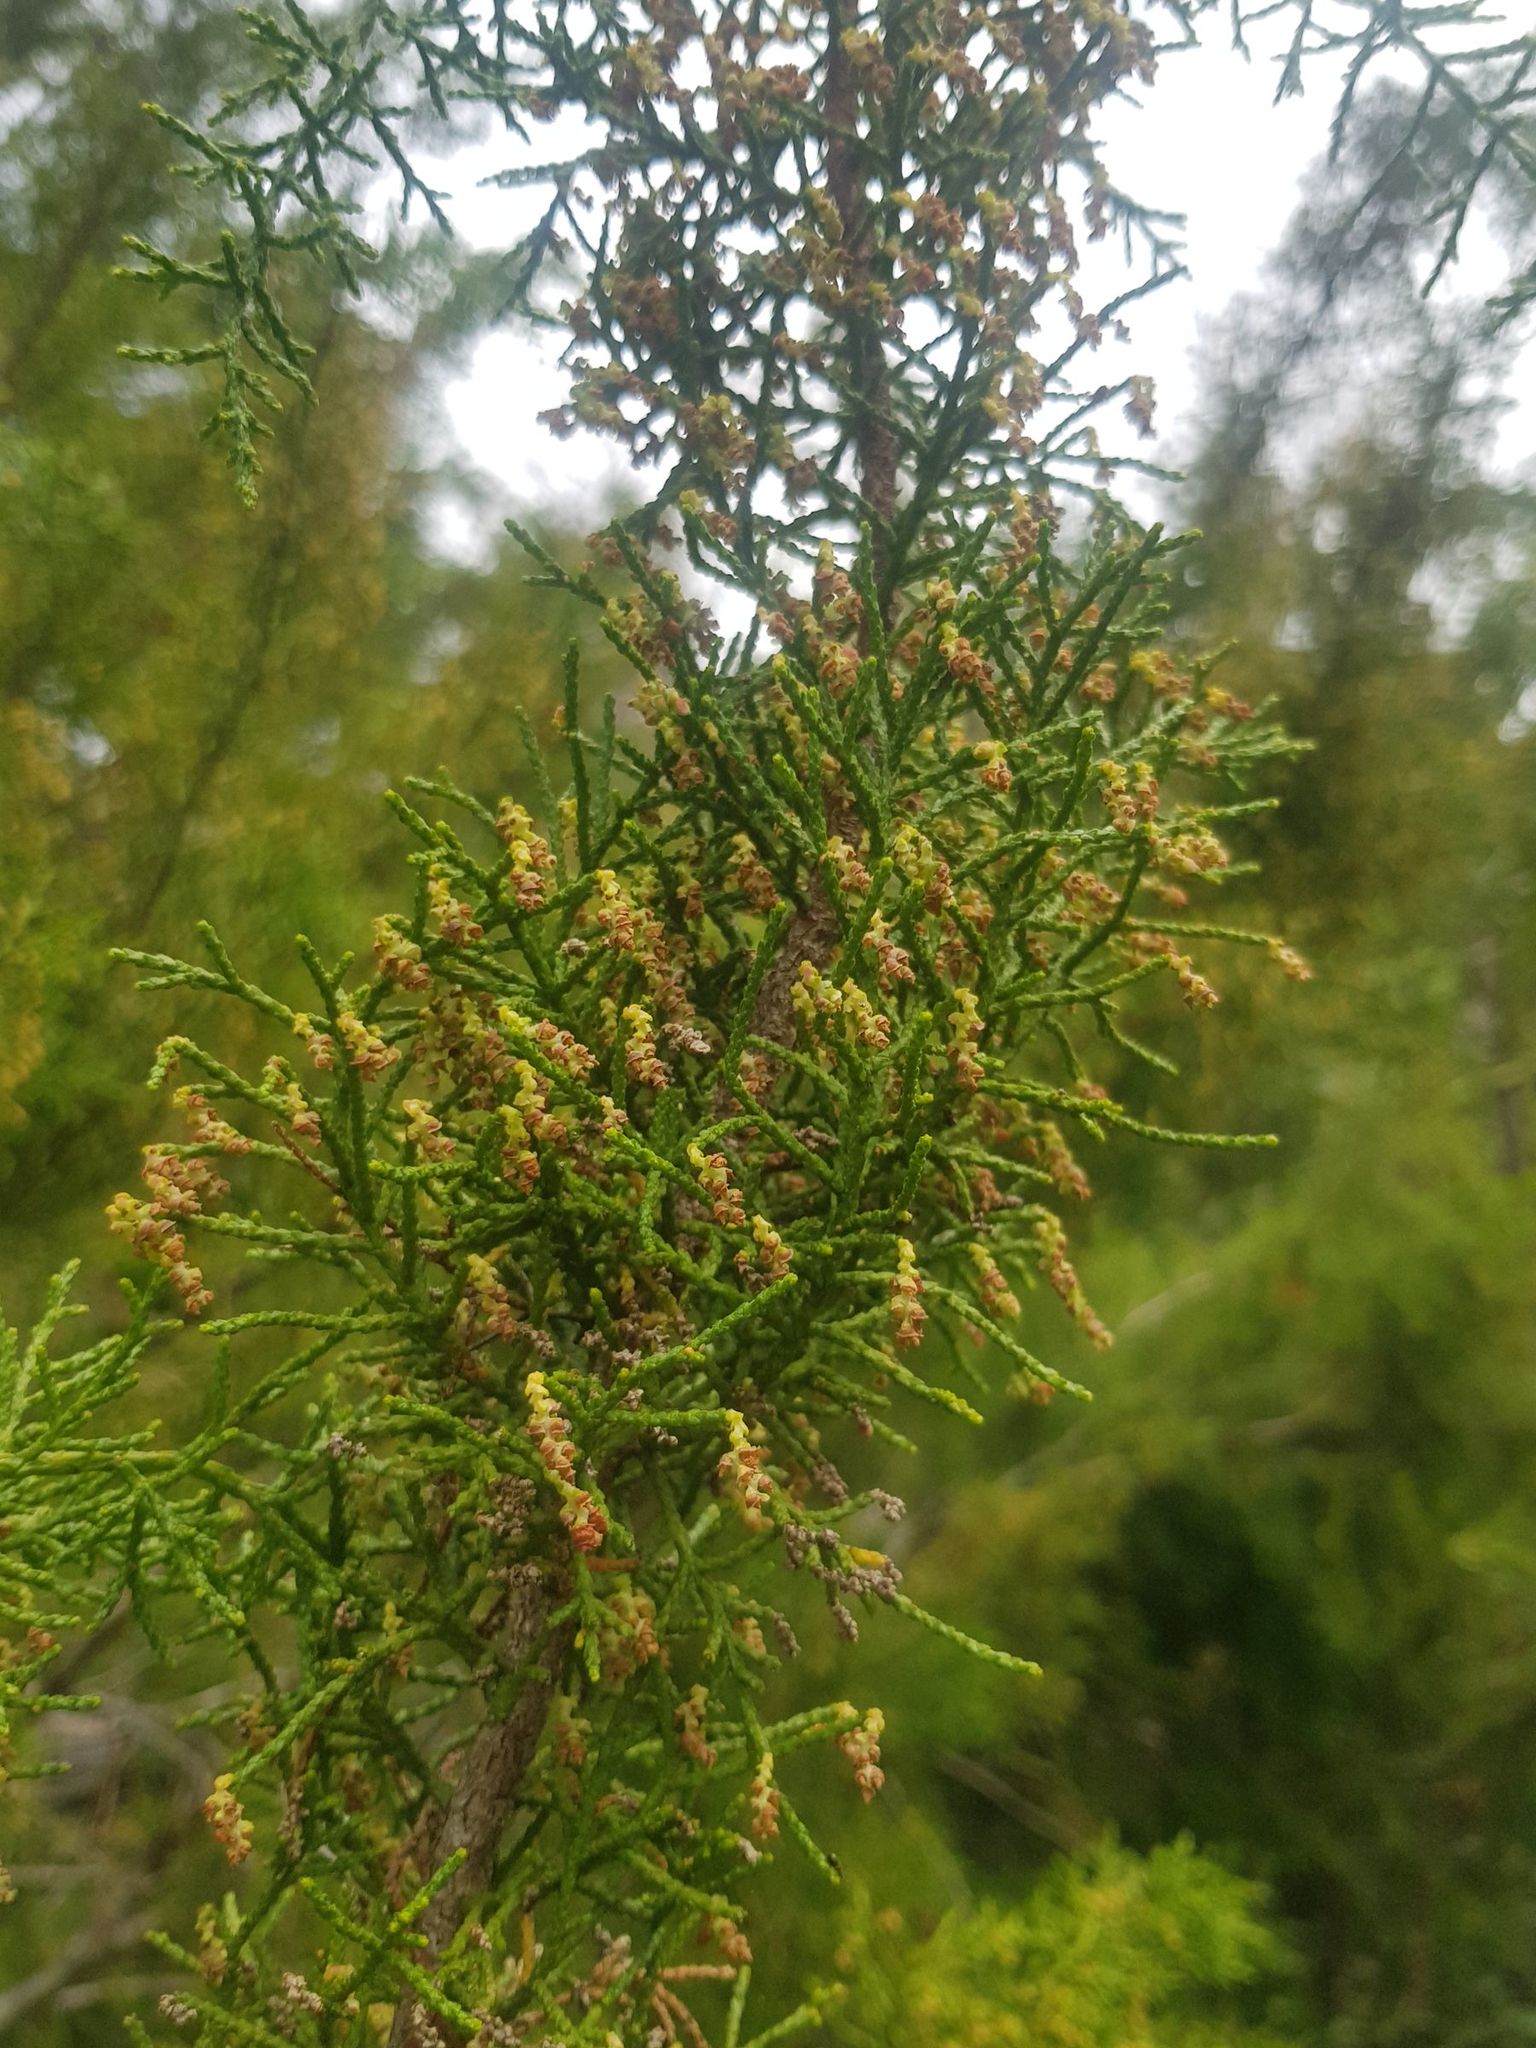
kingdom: Plantae
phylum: Tracheophyta
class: Pinopsida
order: Pinales
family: Podocarpaceae
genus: Lagarostrobos
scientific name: Lagarostrobos franklinii
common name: Huon pine
